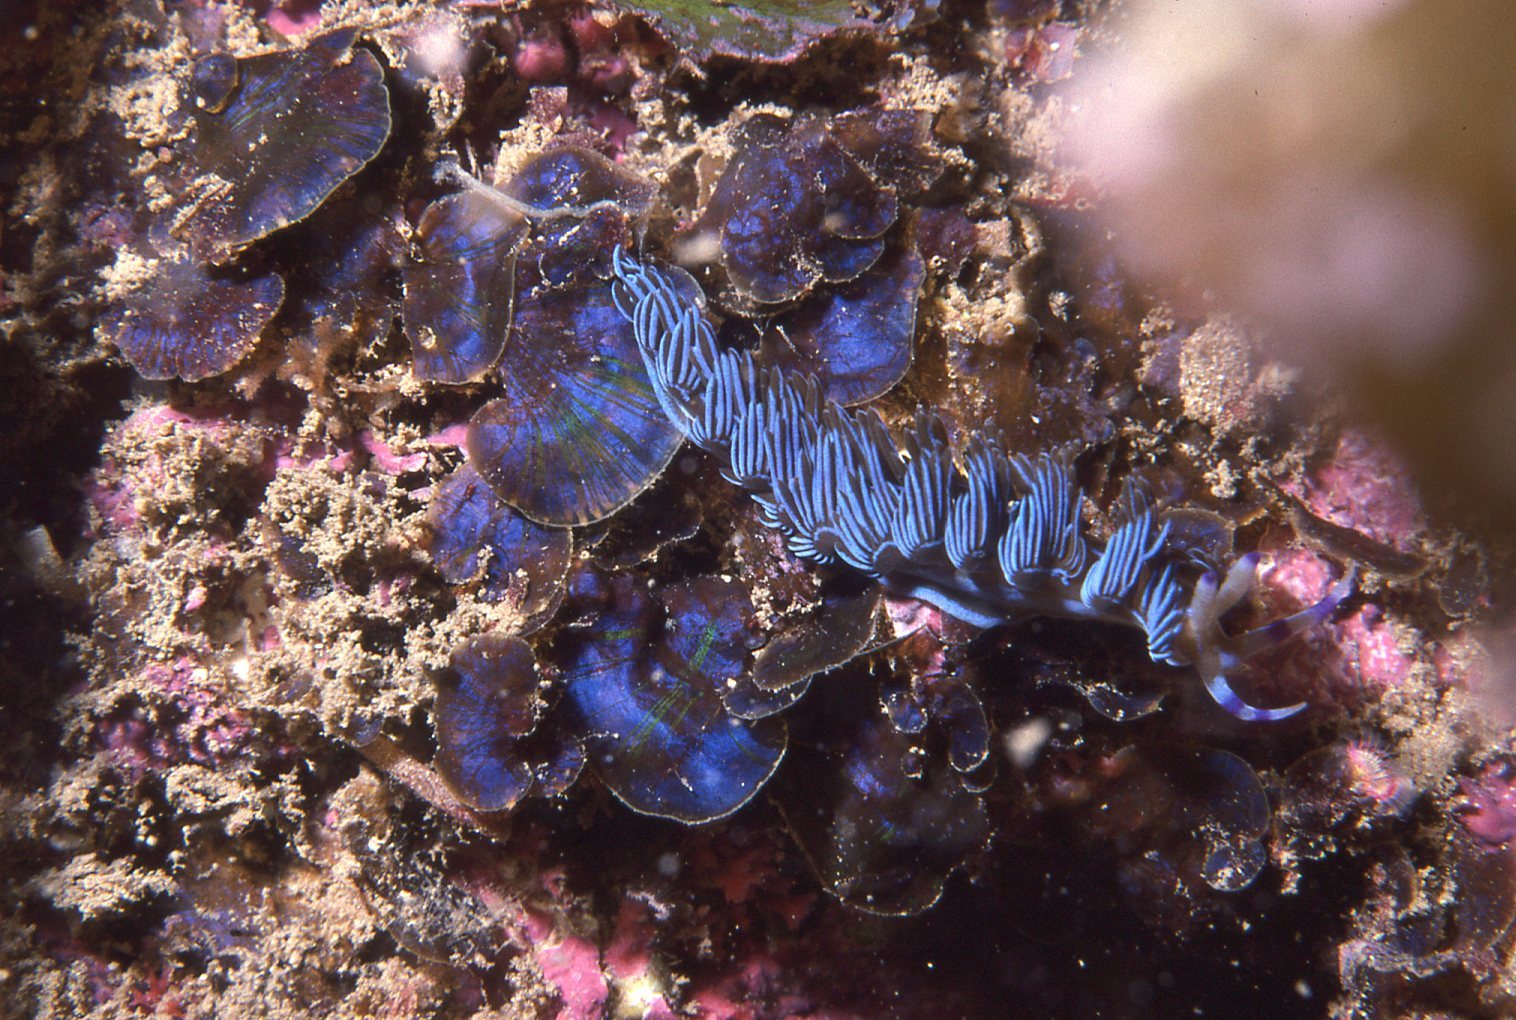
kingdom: Animalia
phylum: Mollusca
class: Gastropoda
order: Nudibranchia
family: Facelinidae
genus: Pteraeolidia
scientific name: Pteraeolidia ianthina
